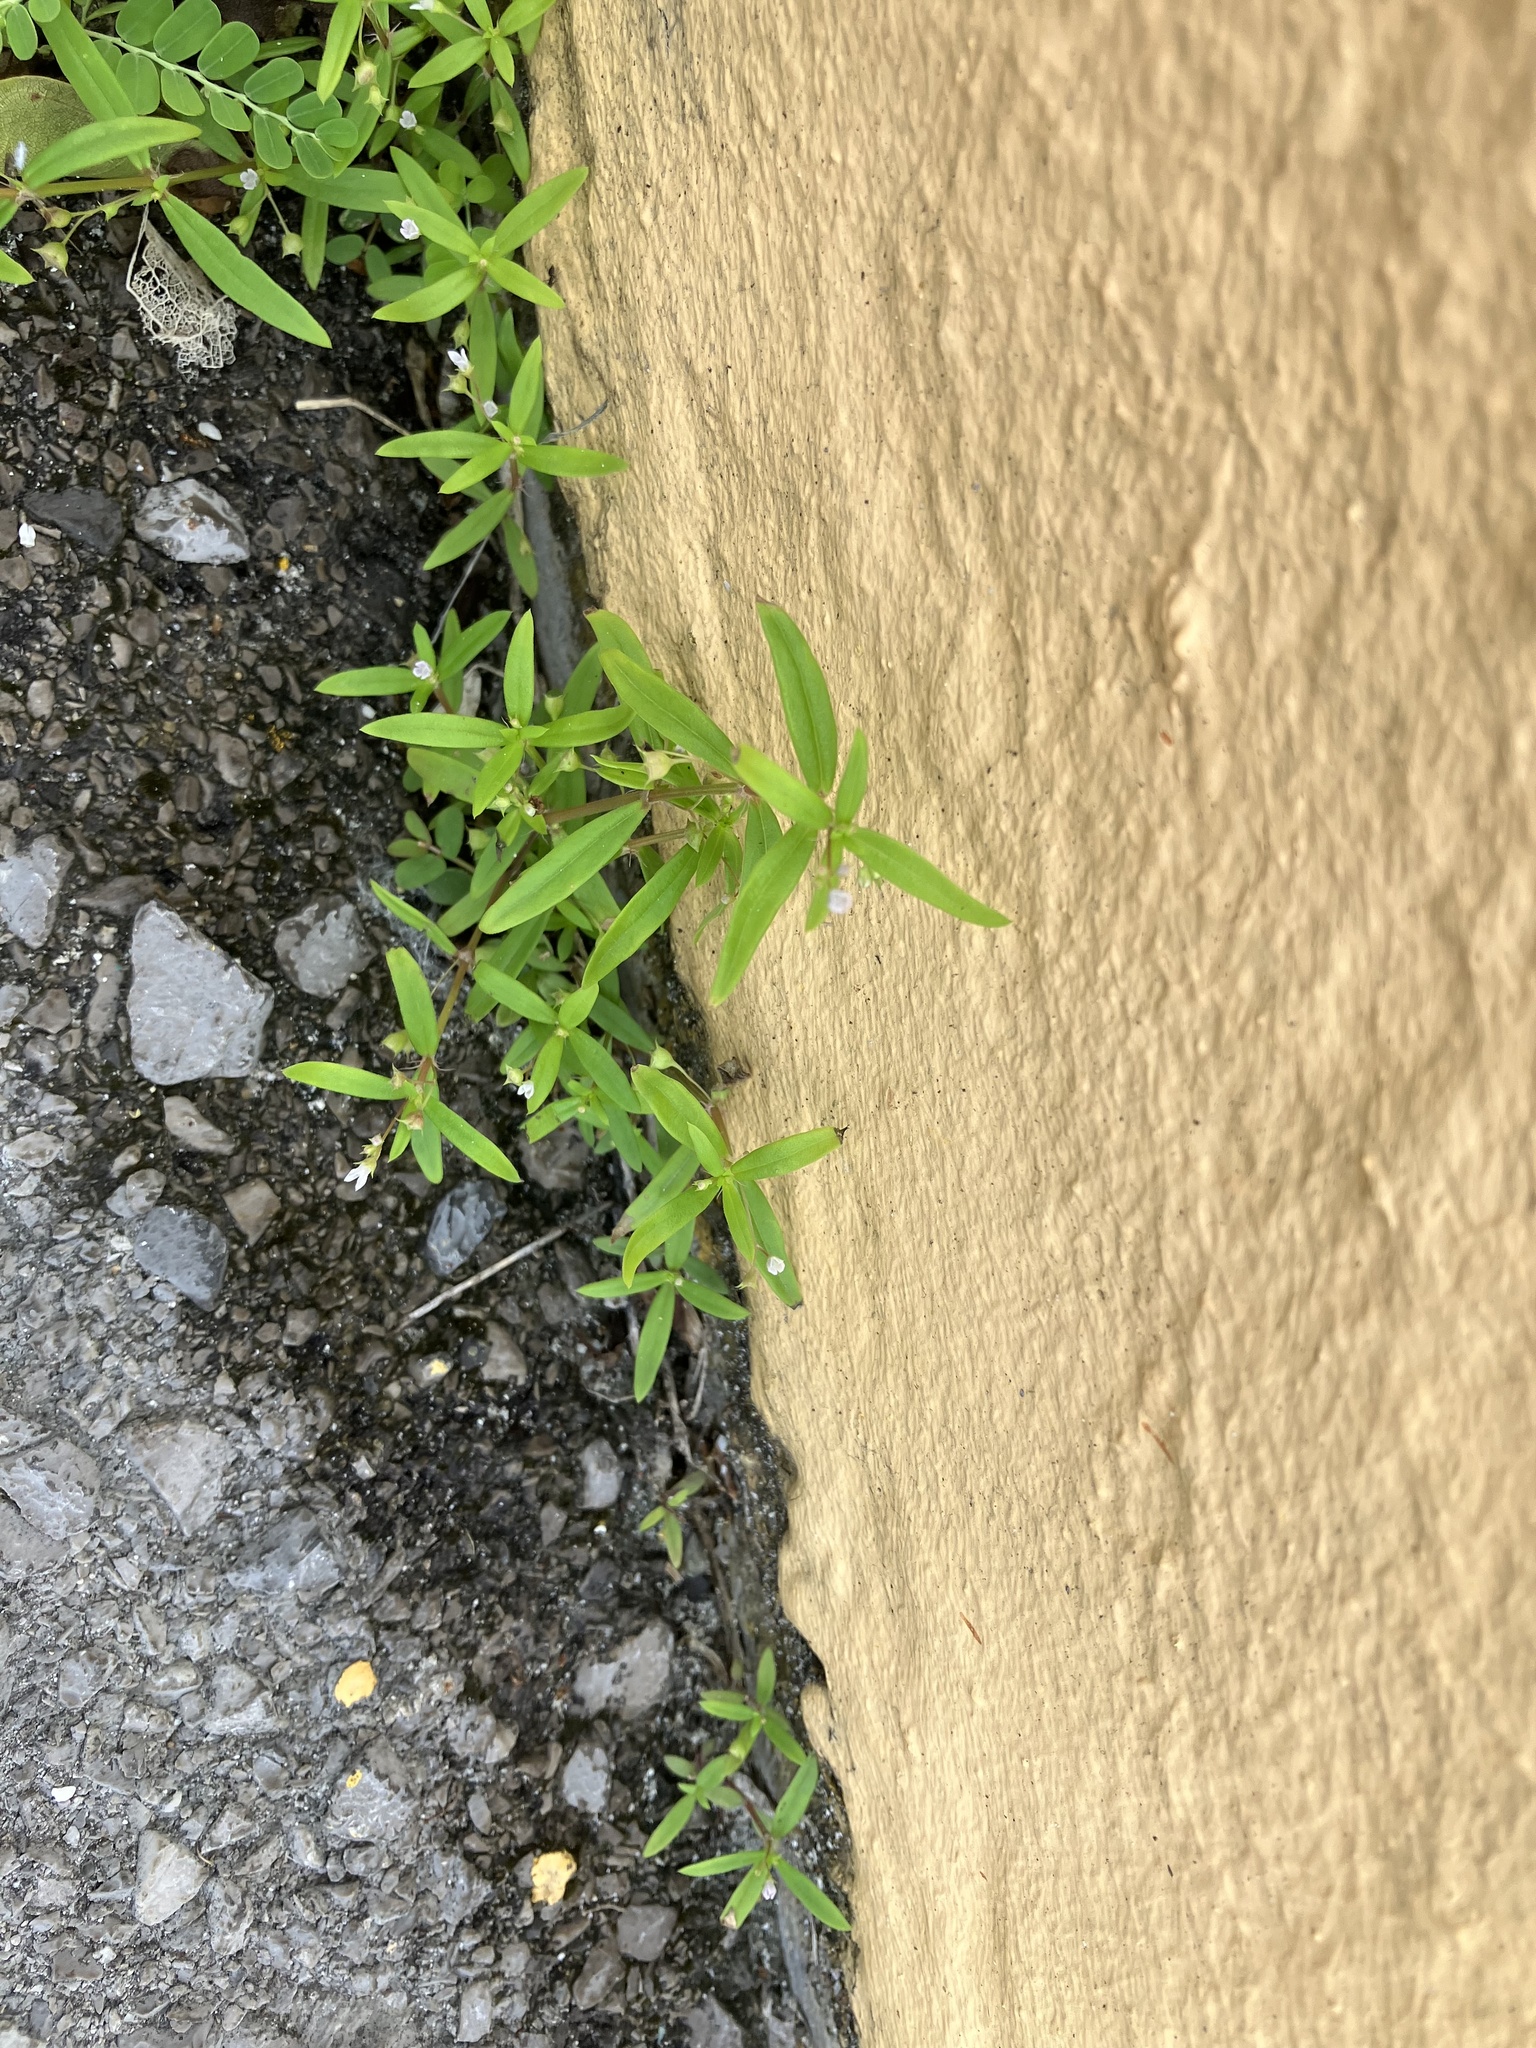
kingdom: Plantae
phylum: Tracheophyta
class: Magnoliopsida
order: Gentianales
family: Rubiaceae
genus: Oldenlandia
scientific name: Oldenlandia corymbosa
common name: Flat-top mille graines
